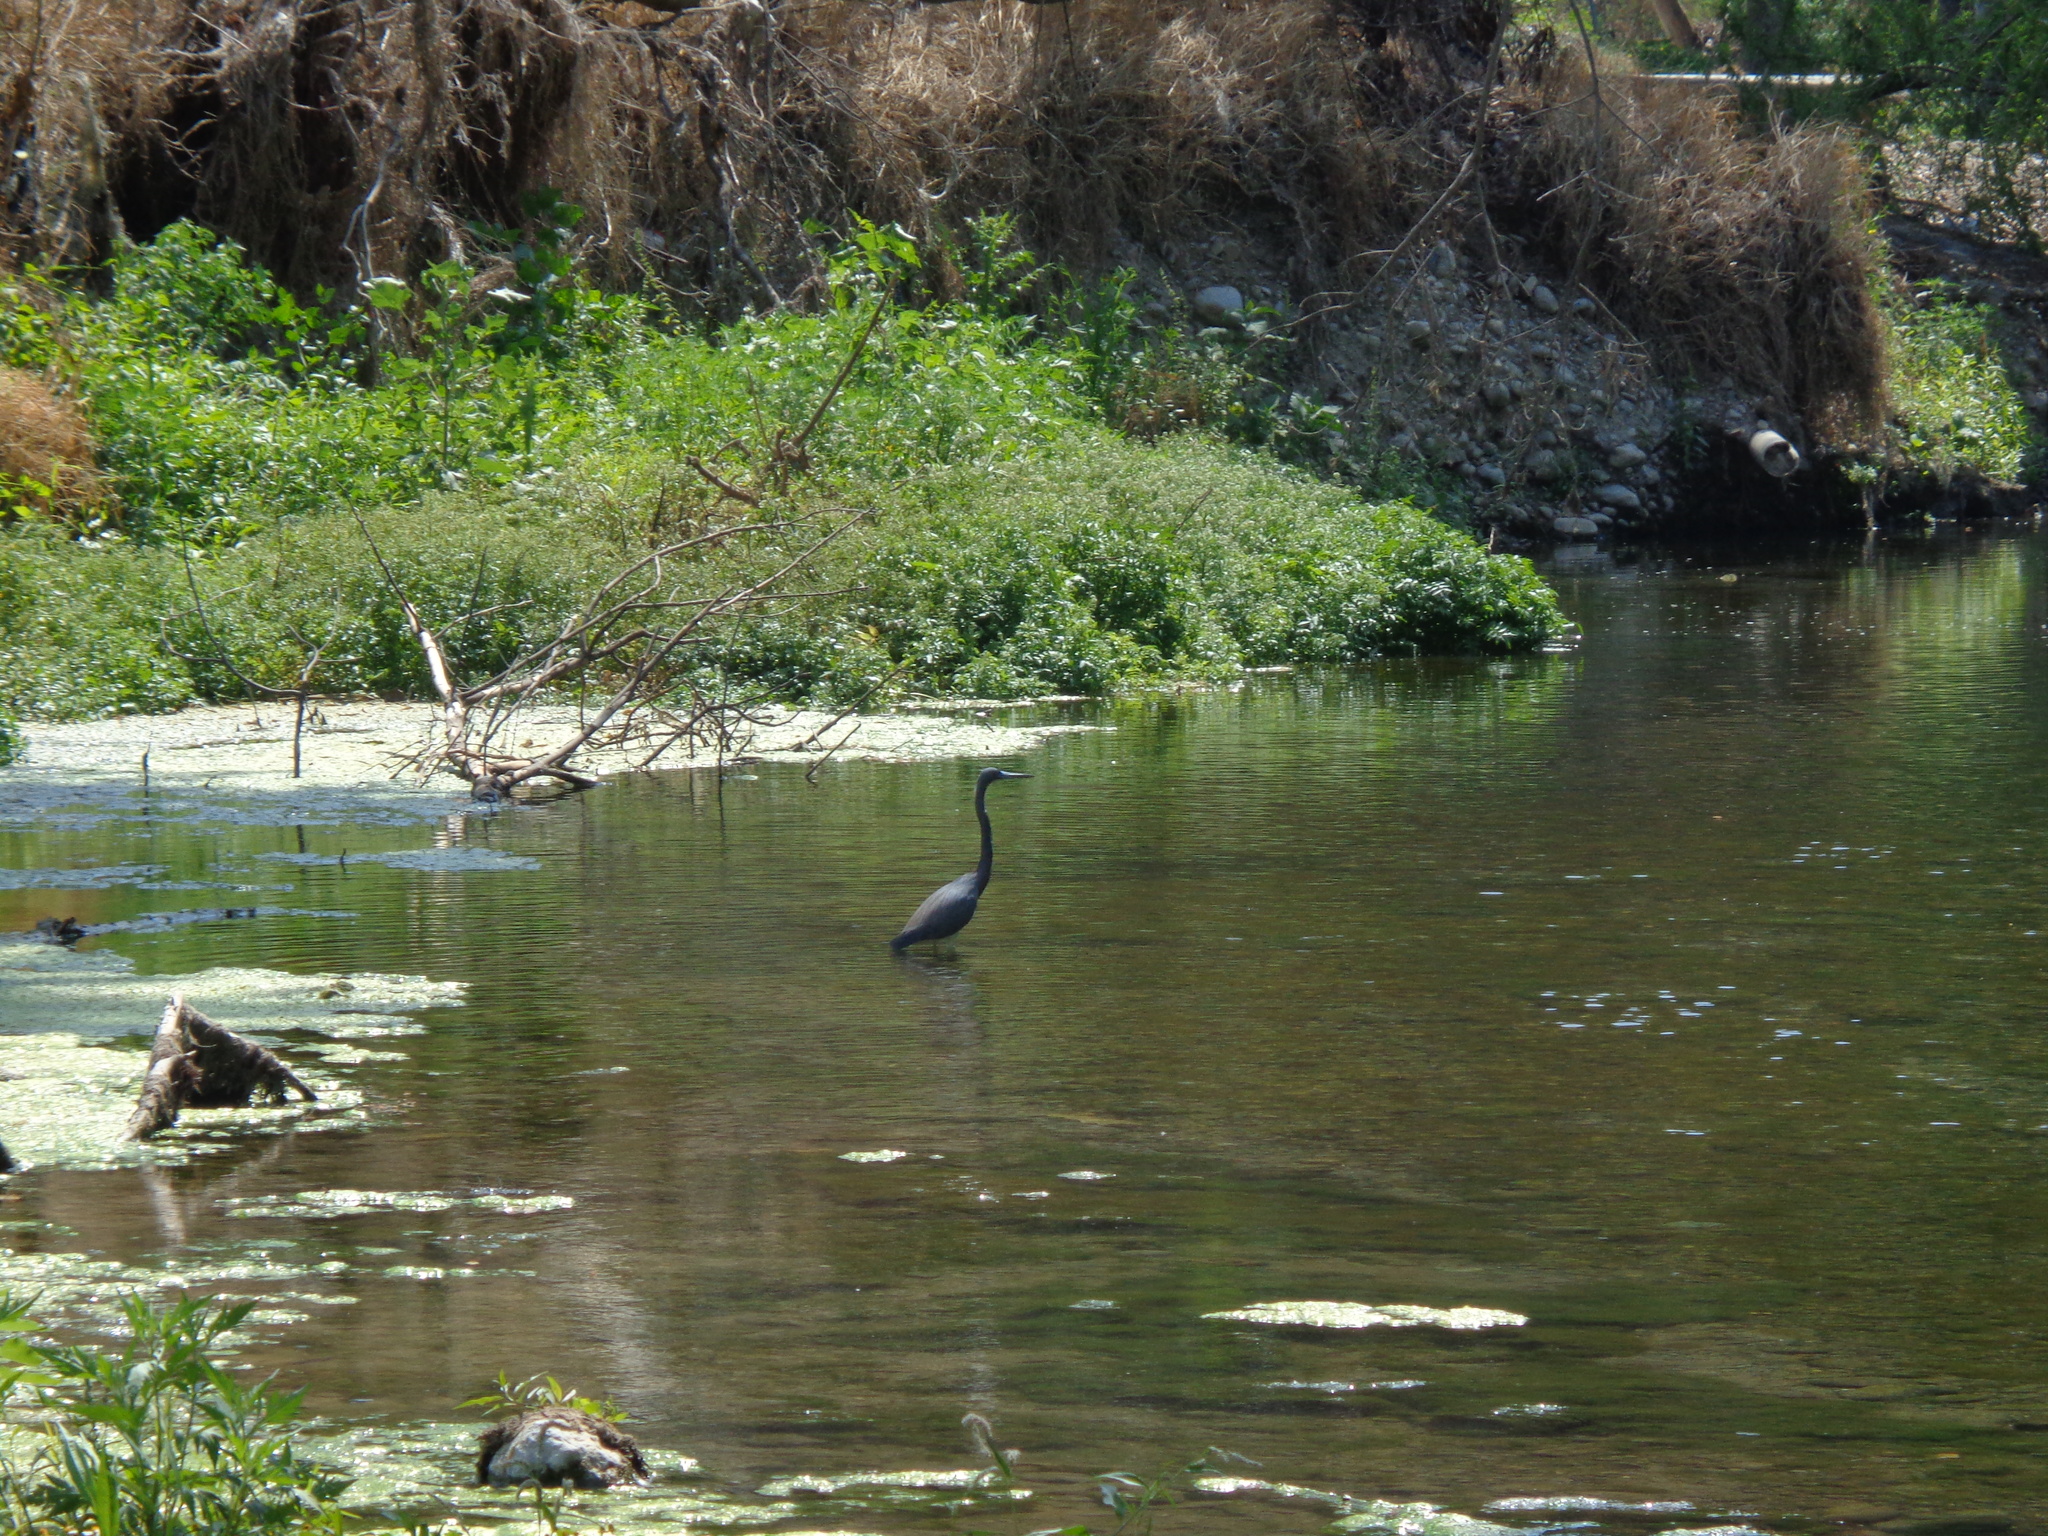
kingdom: Animalia
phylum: Chordata
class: Aves
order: Pelecaniformes
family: Ardeidae
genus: Egretta
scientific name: Egretta tricolor
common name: Tricolored heron
